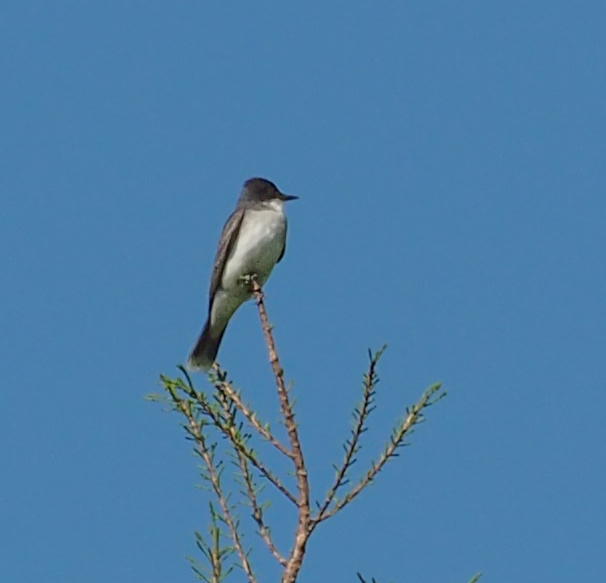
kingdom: Animalia
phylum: Chordata
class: Aves
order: Passeriformes
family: Tyrannidae
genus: Tyrannus
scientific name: Tyrannus tyrannus
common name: Eastern kingbird
